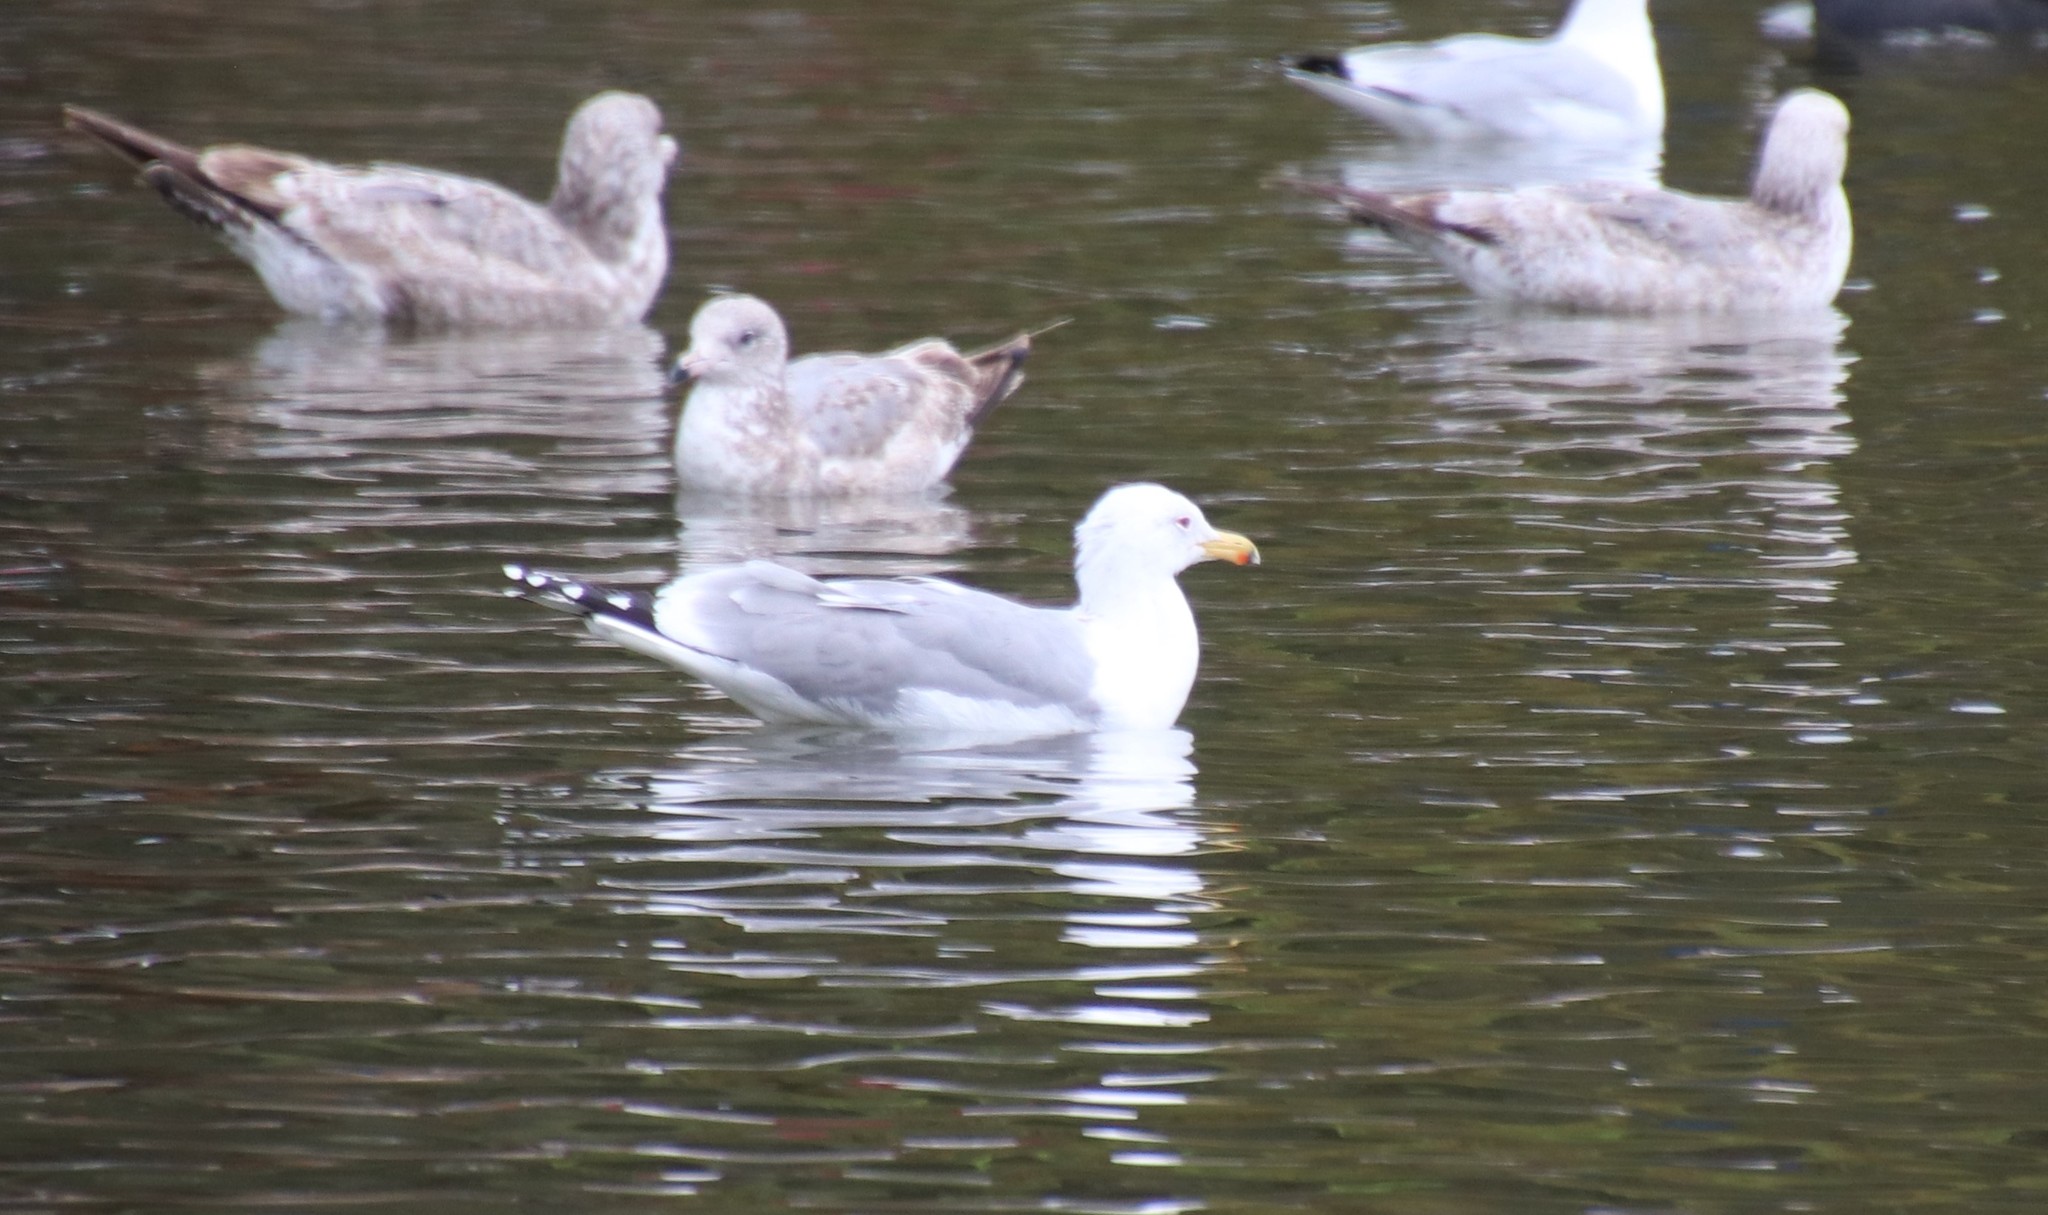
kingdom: Animalia
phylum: Chordata
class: Aves
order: Charadriiformes
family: Laridae
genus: Larus
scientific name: Larus californicus
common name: California gull
